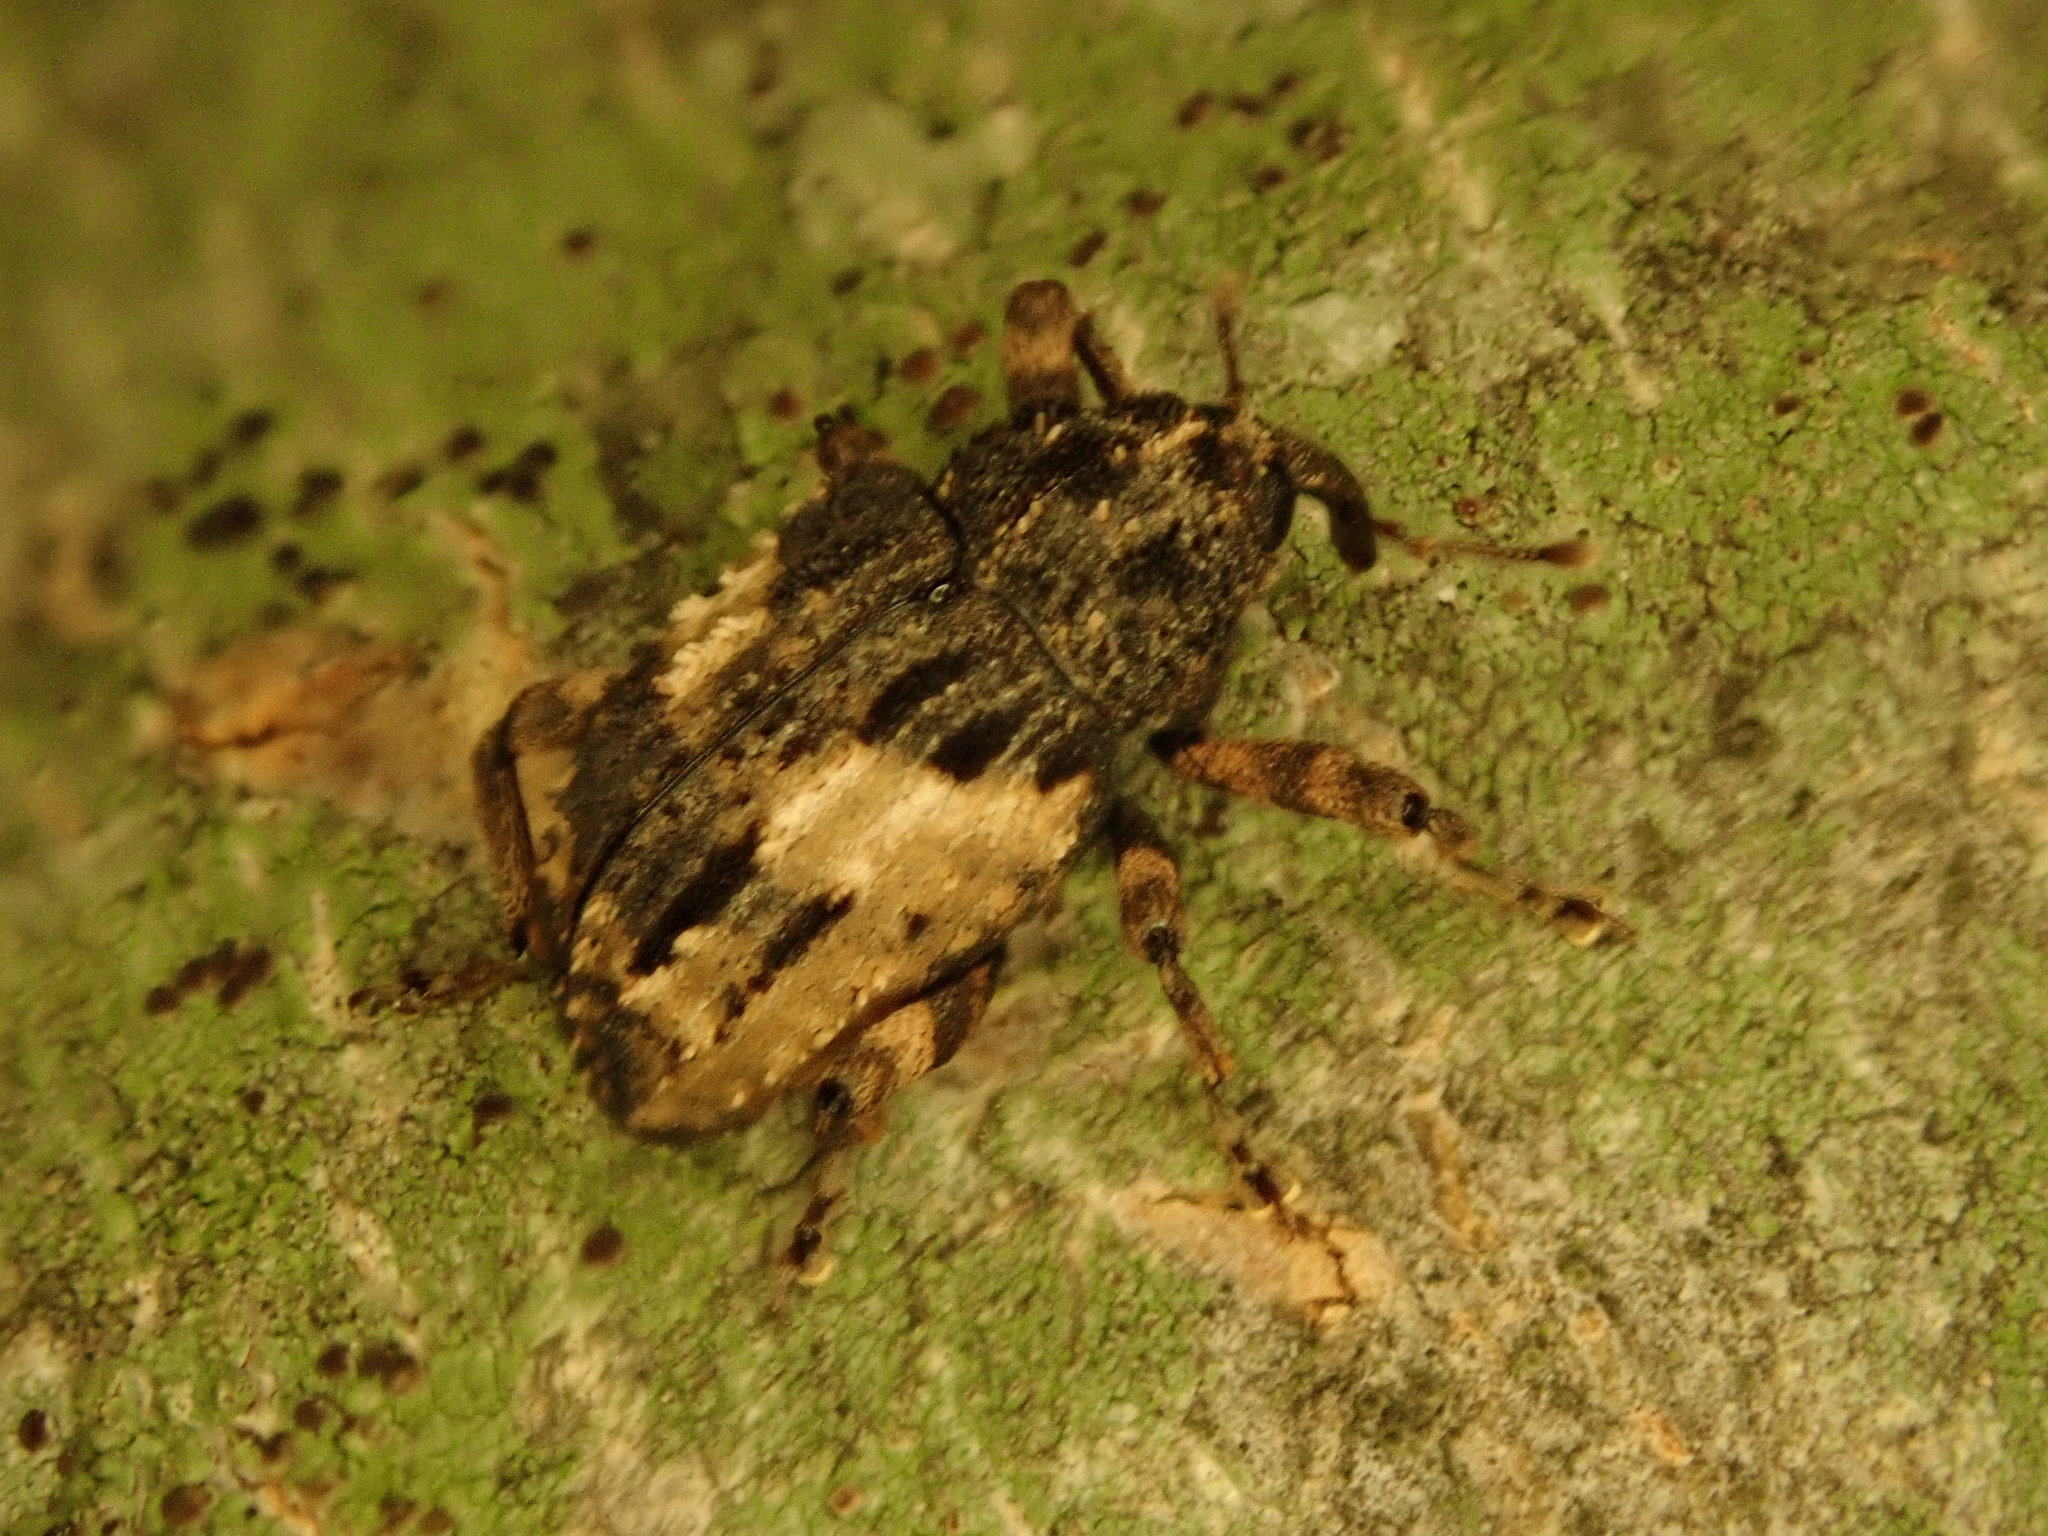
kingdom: Animalia
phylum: Arthropoda
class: Insecta
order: Coleoptera
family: Curculionidae
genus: Cryptorhynchus
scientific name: Cryptorhynchus fuscatus
